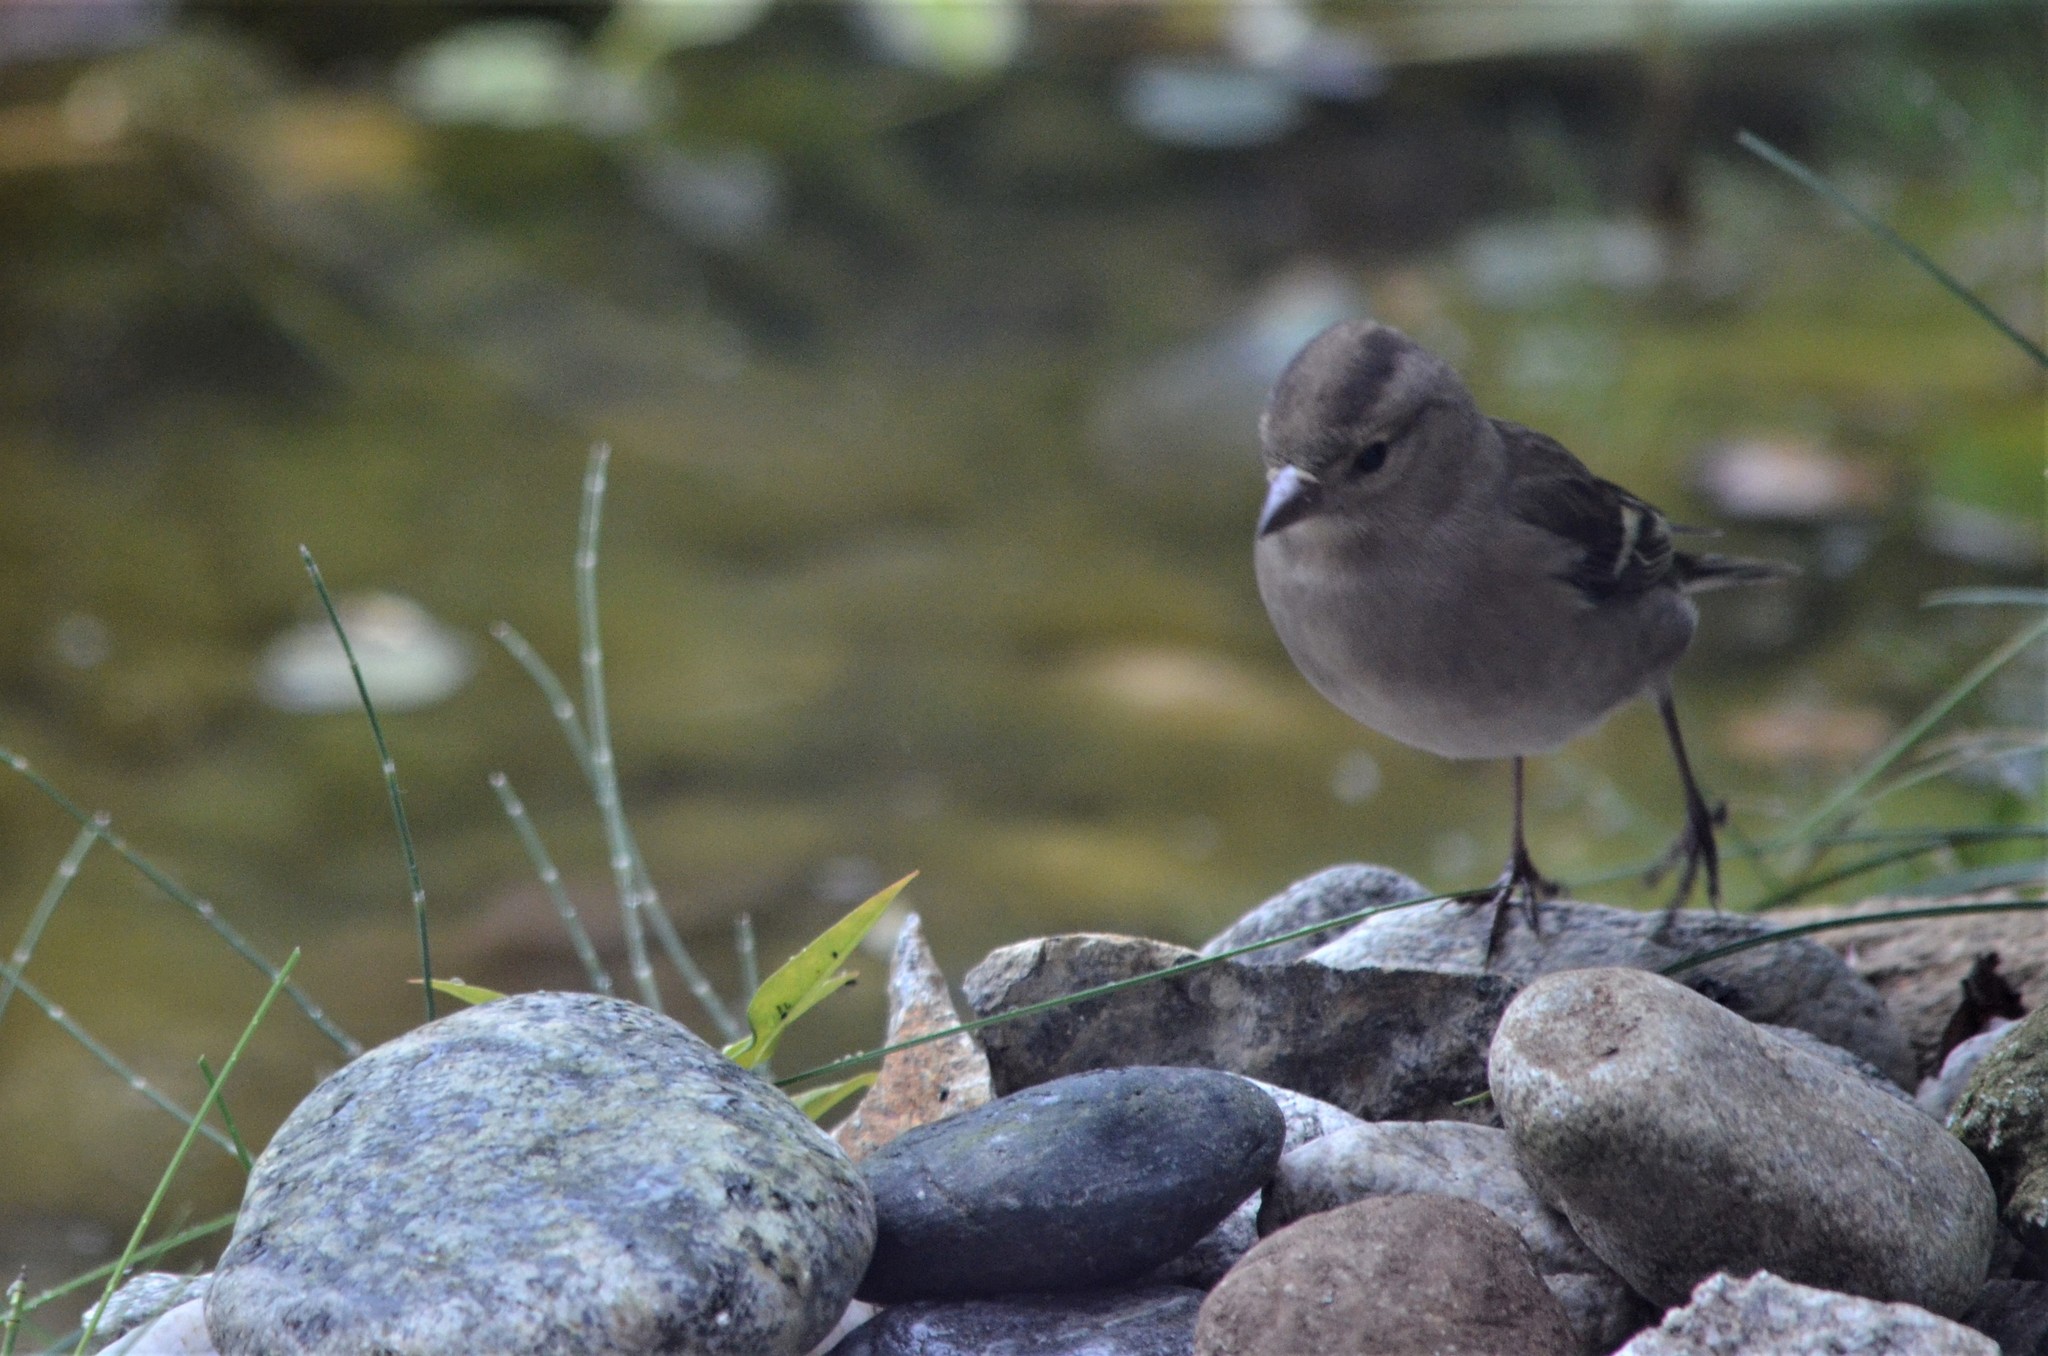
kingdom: Animalia
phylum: Chordata
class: Aves
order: Passeriformes
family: Fringillidae
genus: Fringilla
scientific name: Fringilla coelebs
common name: Common chaffinch
